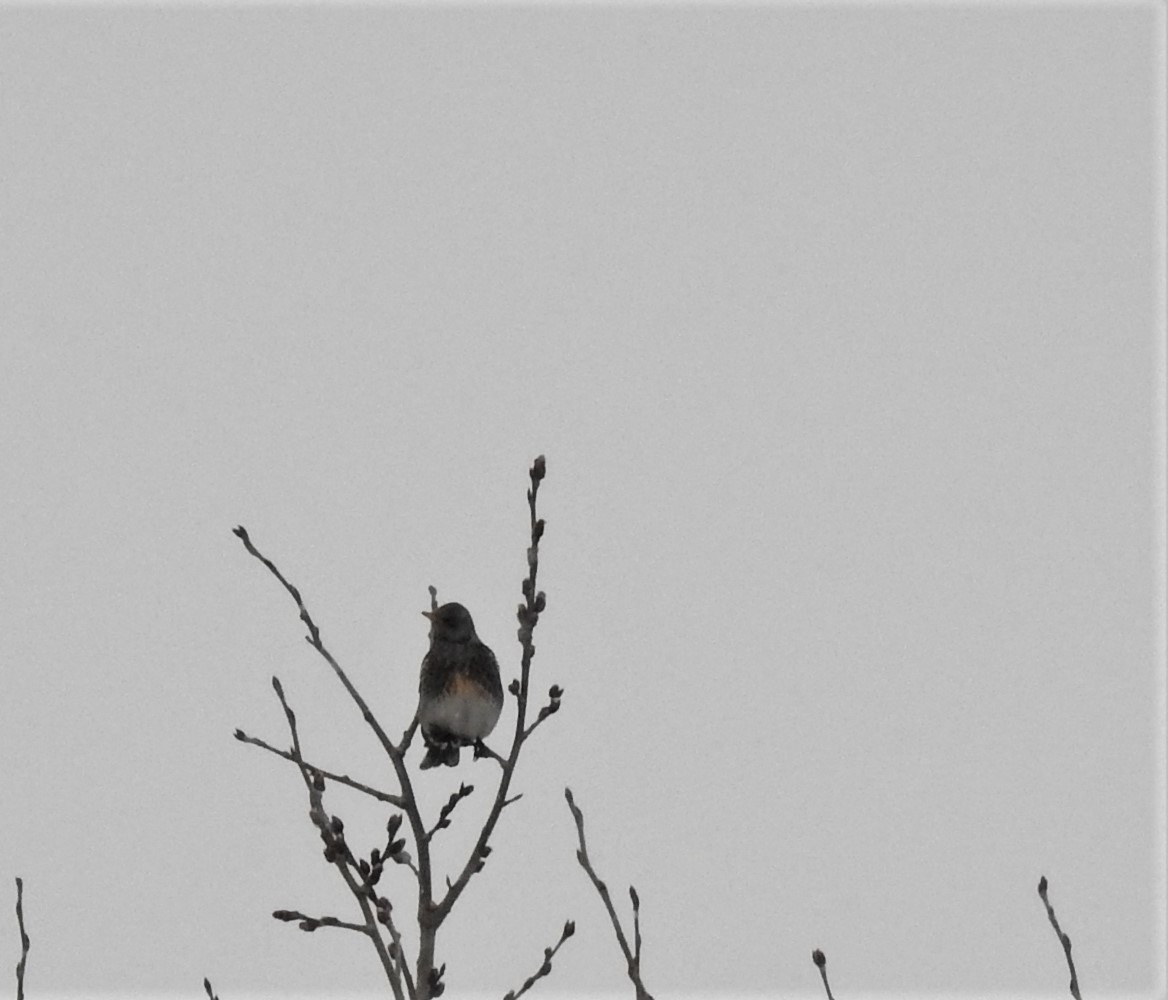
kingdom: Animalia
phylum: Chordata
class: Aves
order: Passeriformes
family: Turdidae
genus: Turdus
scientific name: Turdus pilaris
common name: Fieldfare
